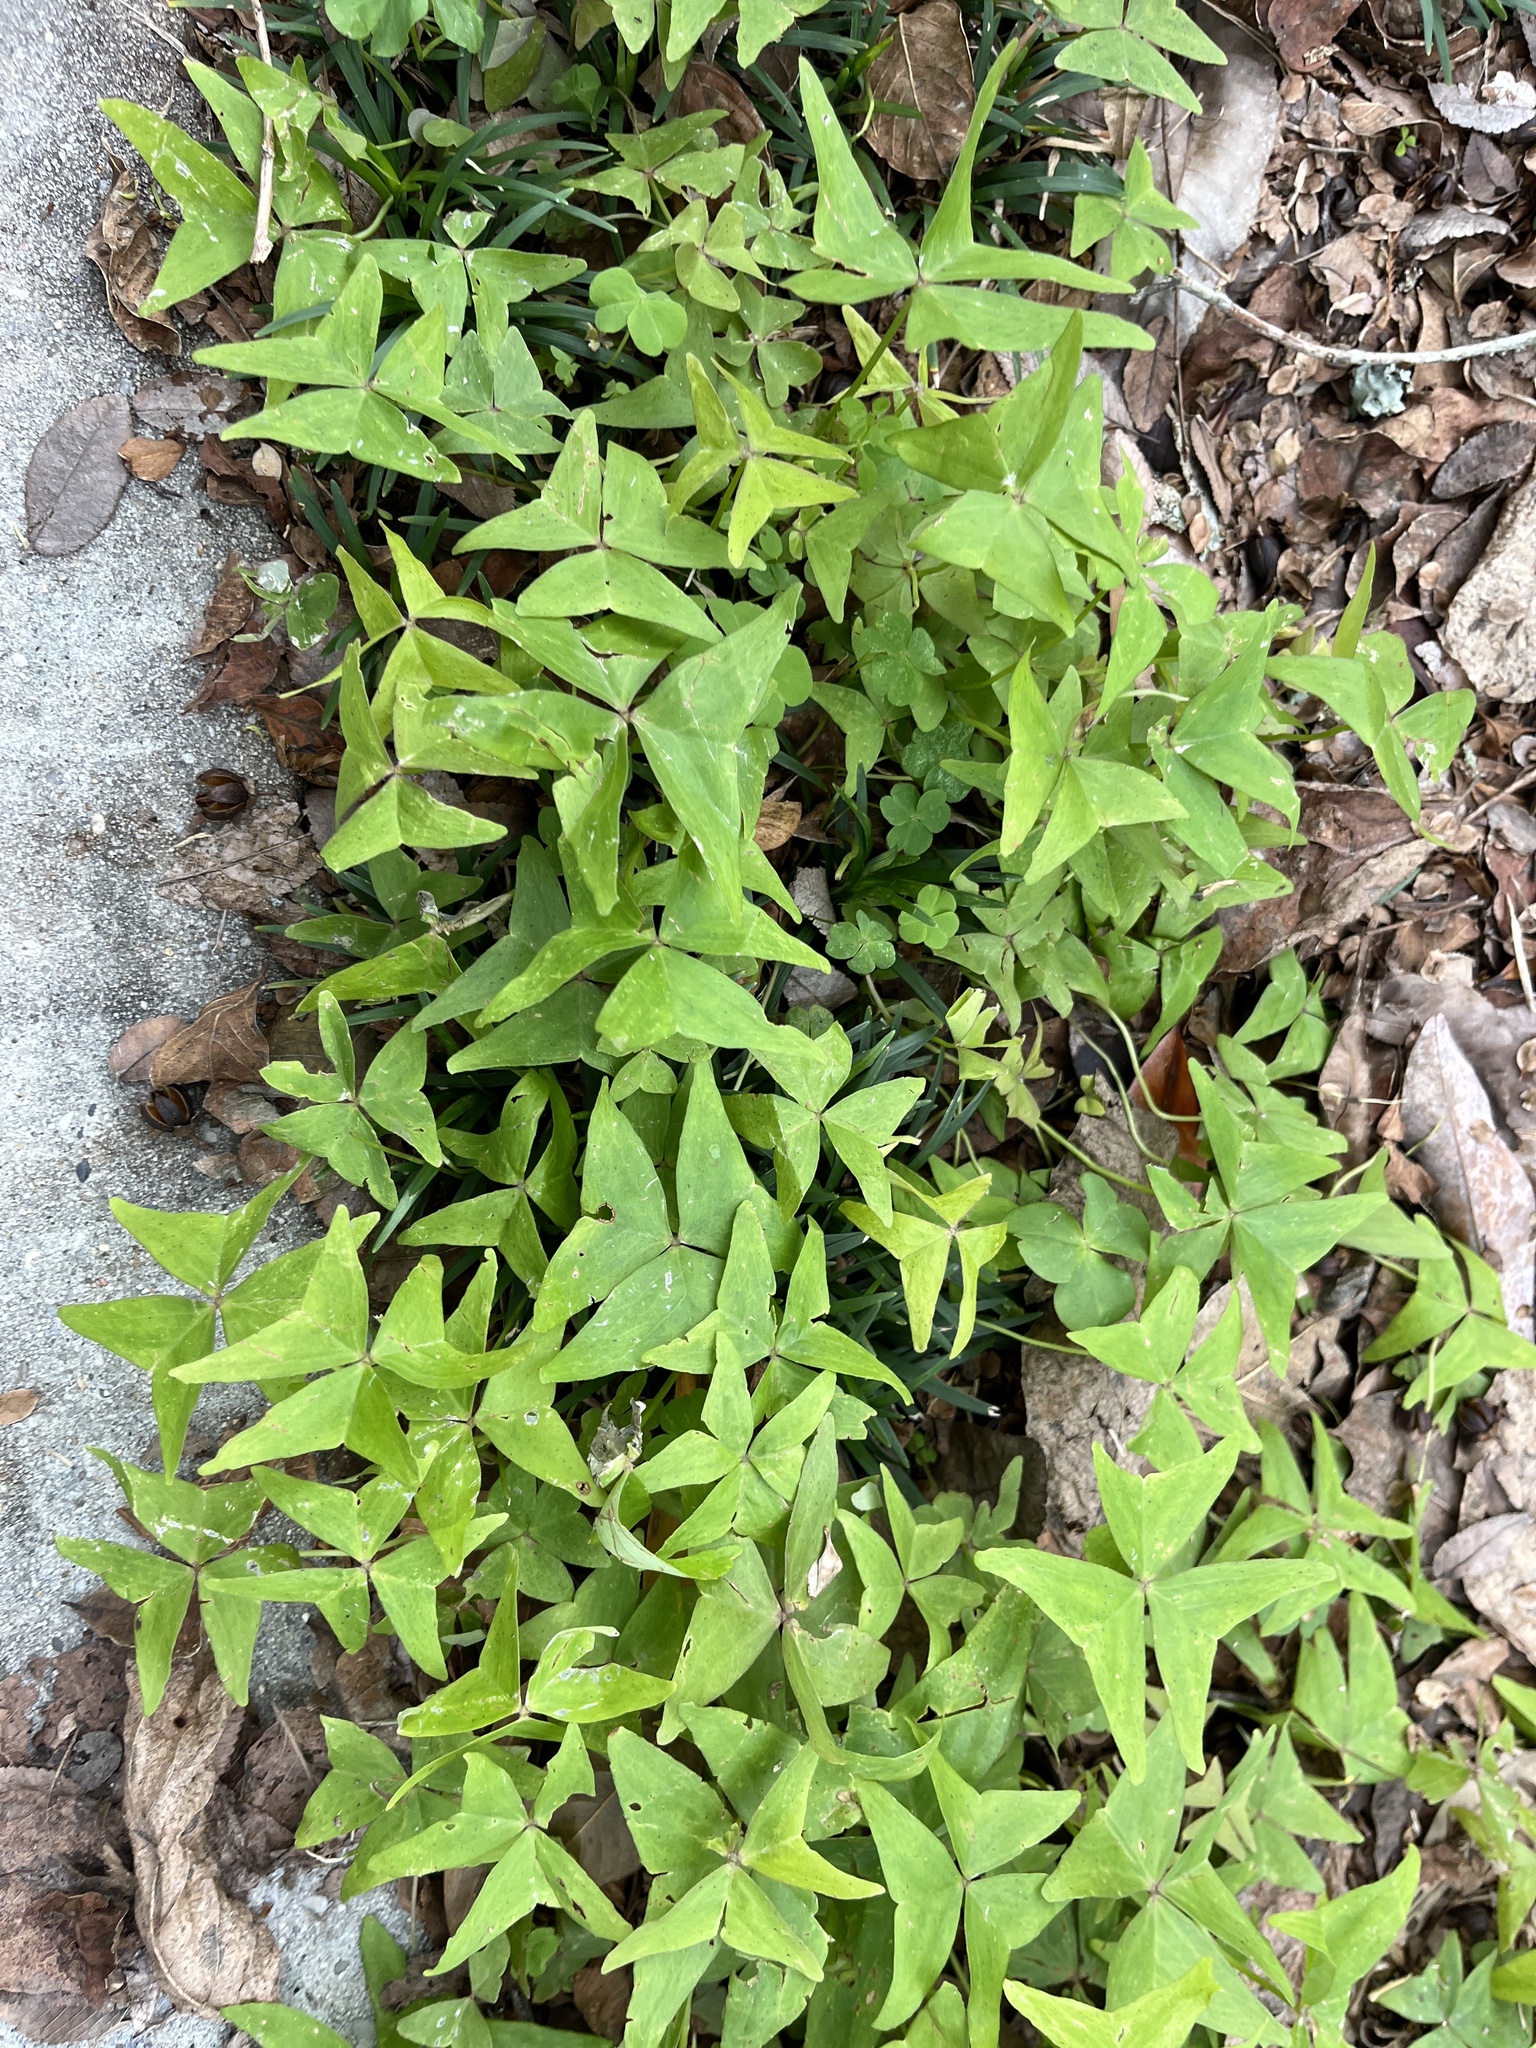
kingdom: Plantae
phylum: Tracheophyta
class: Magnoliopsida
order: Oxalidales
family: Oxalidaceae
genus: Oxalis
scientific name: Oxalis intermedia
